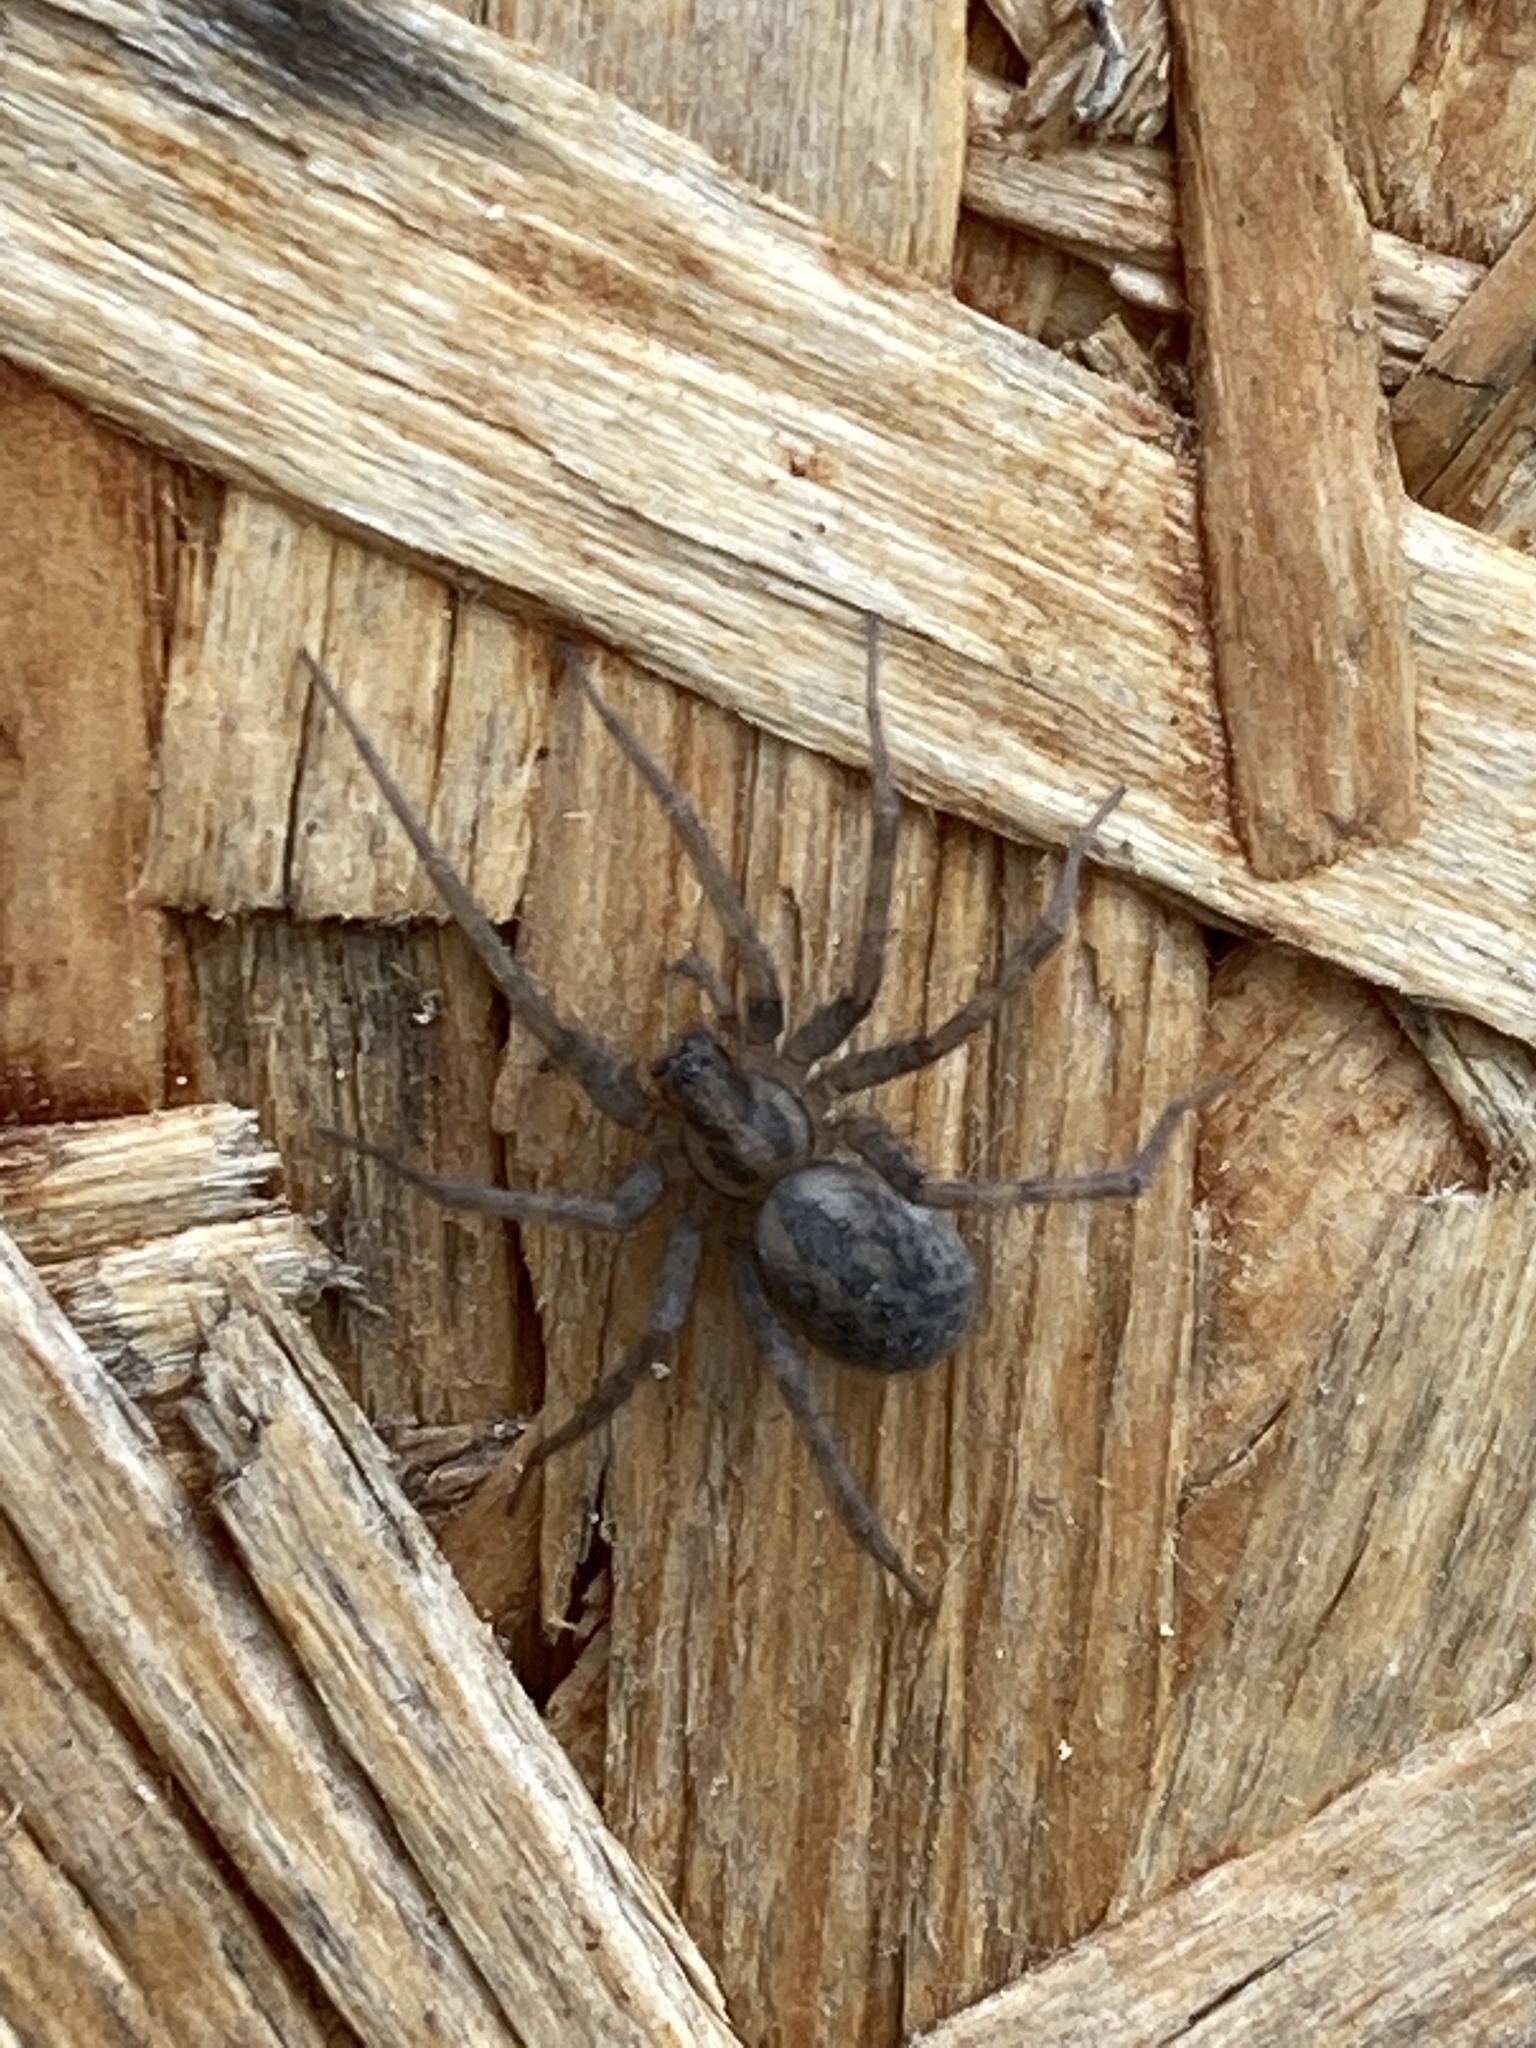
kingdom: Animalia
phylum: Arthropoda
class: Arachnida
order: Araneae
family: Agelenidae
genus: Tegenaria
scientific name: Tegenaria domestica
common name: Barn funnel weaver
